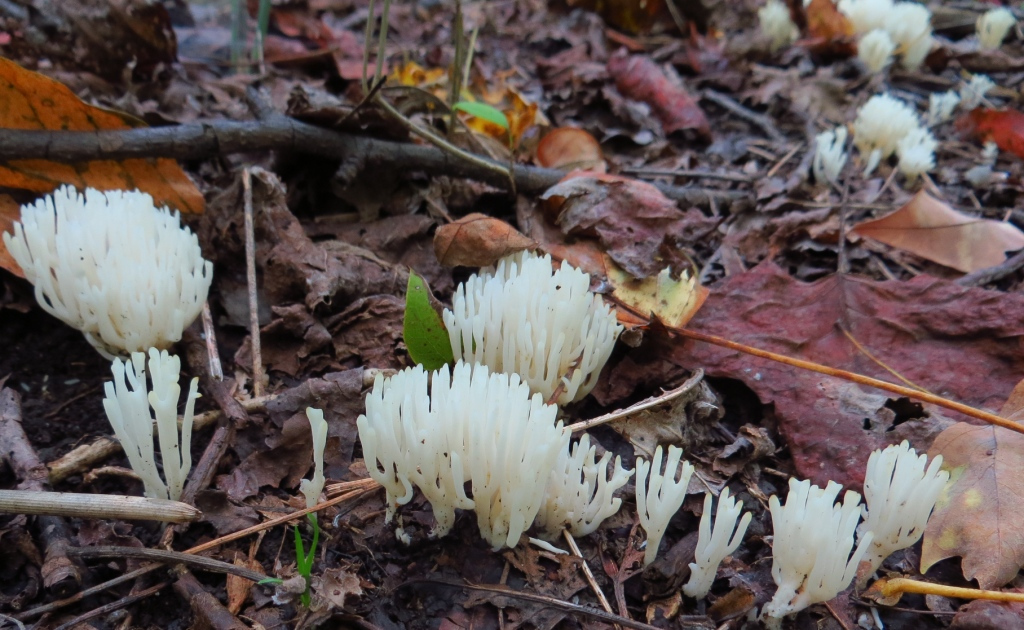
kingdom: Fungi
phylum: Basidiomycota
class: Agaricomycetes
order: Agaricales
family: Clavariaceae
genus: Ramariopsis
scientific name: Ramariopsis kunzei
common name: Ivory coral
